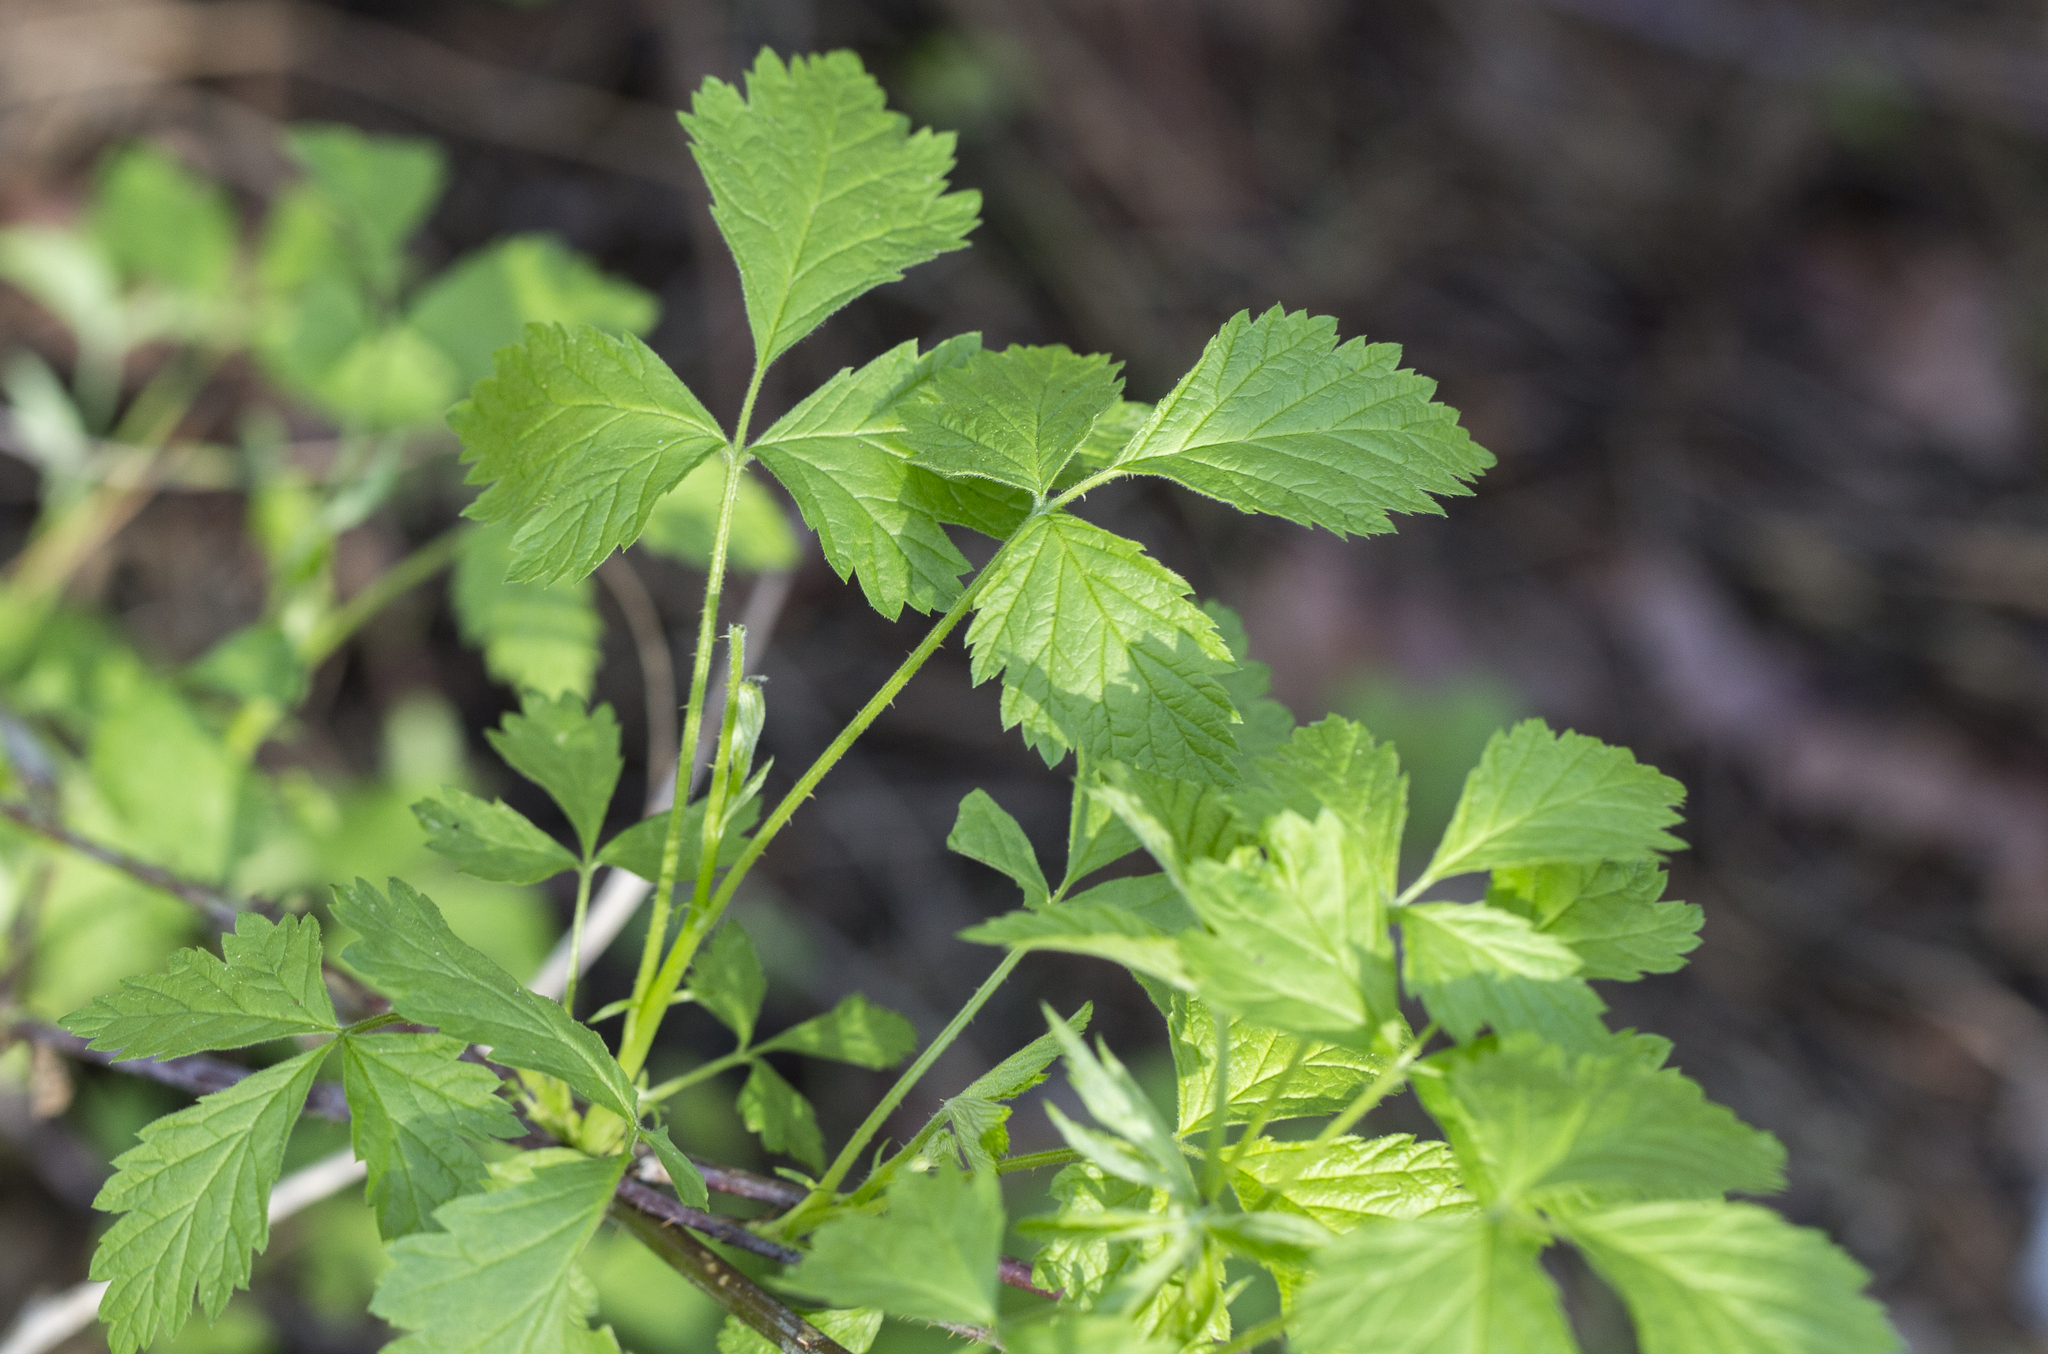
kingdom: Plantae
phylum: Tracheophyta
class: Magnoliopsida
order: Rosales
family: Rosaceae
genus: Rubus
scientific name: Rubus idaeus
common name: Raspberry
